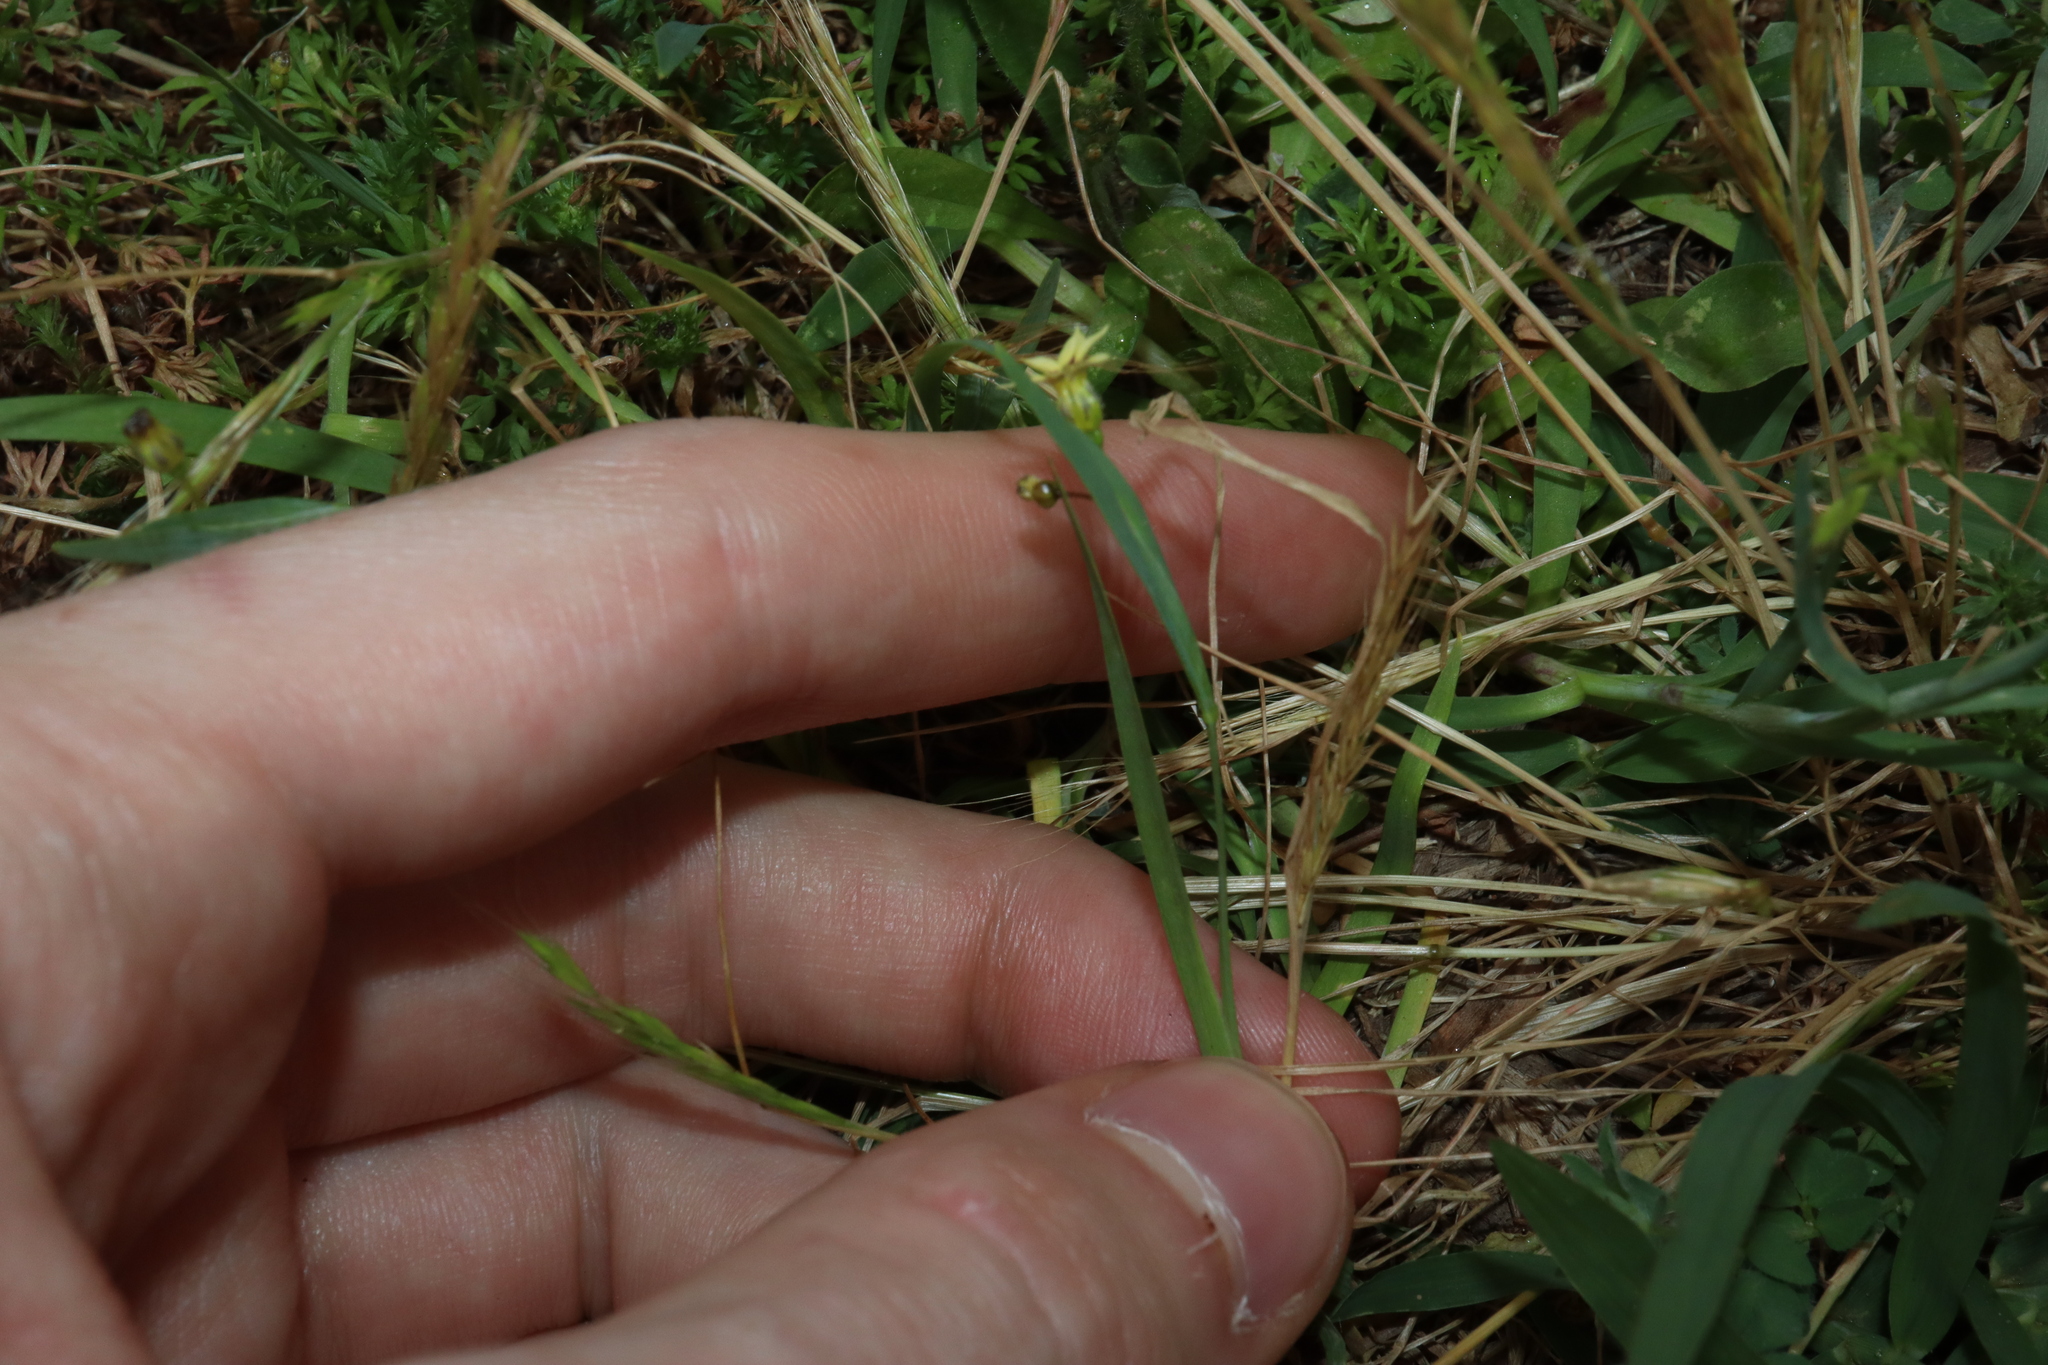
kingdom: Plantae
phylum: Tracheophyta
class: Liliopsida
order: Asparagales
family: Iridaceae
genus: Sisyrinchium
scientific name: Sisyrinchium micranthum
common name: Bermuda pigroot
